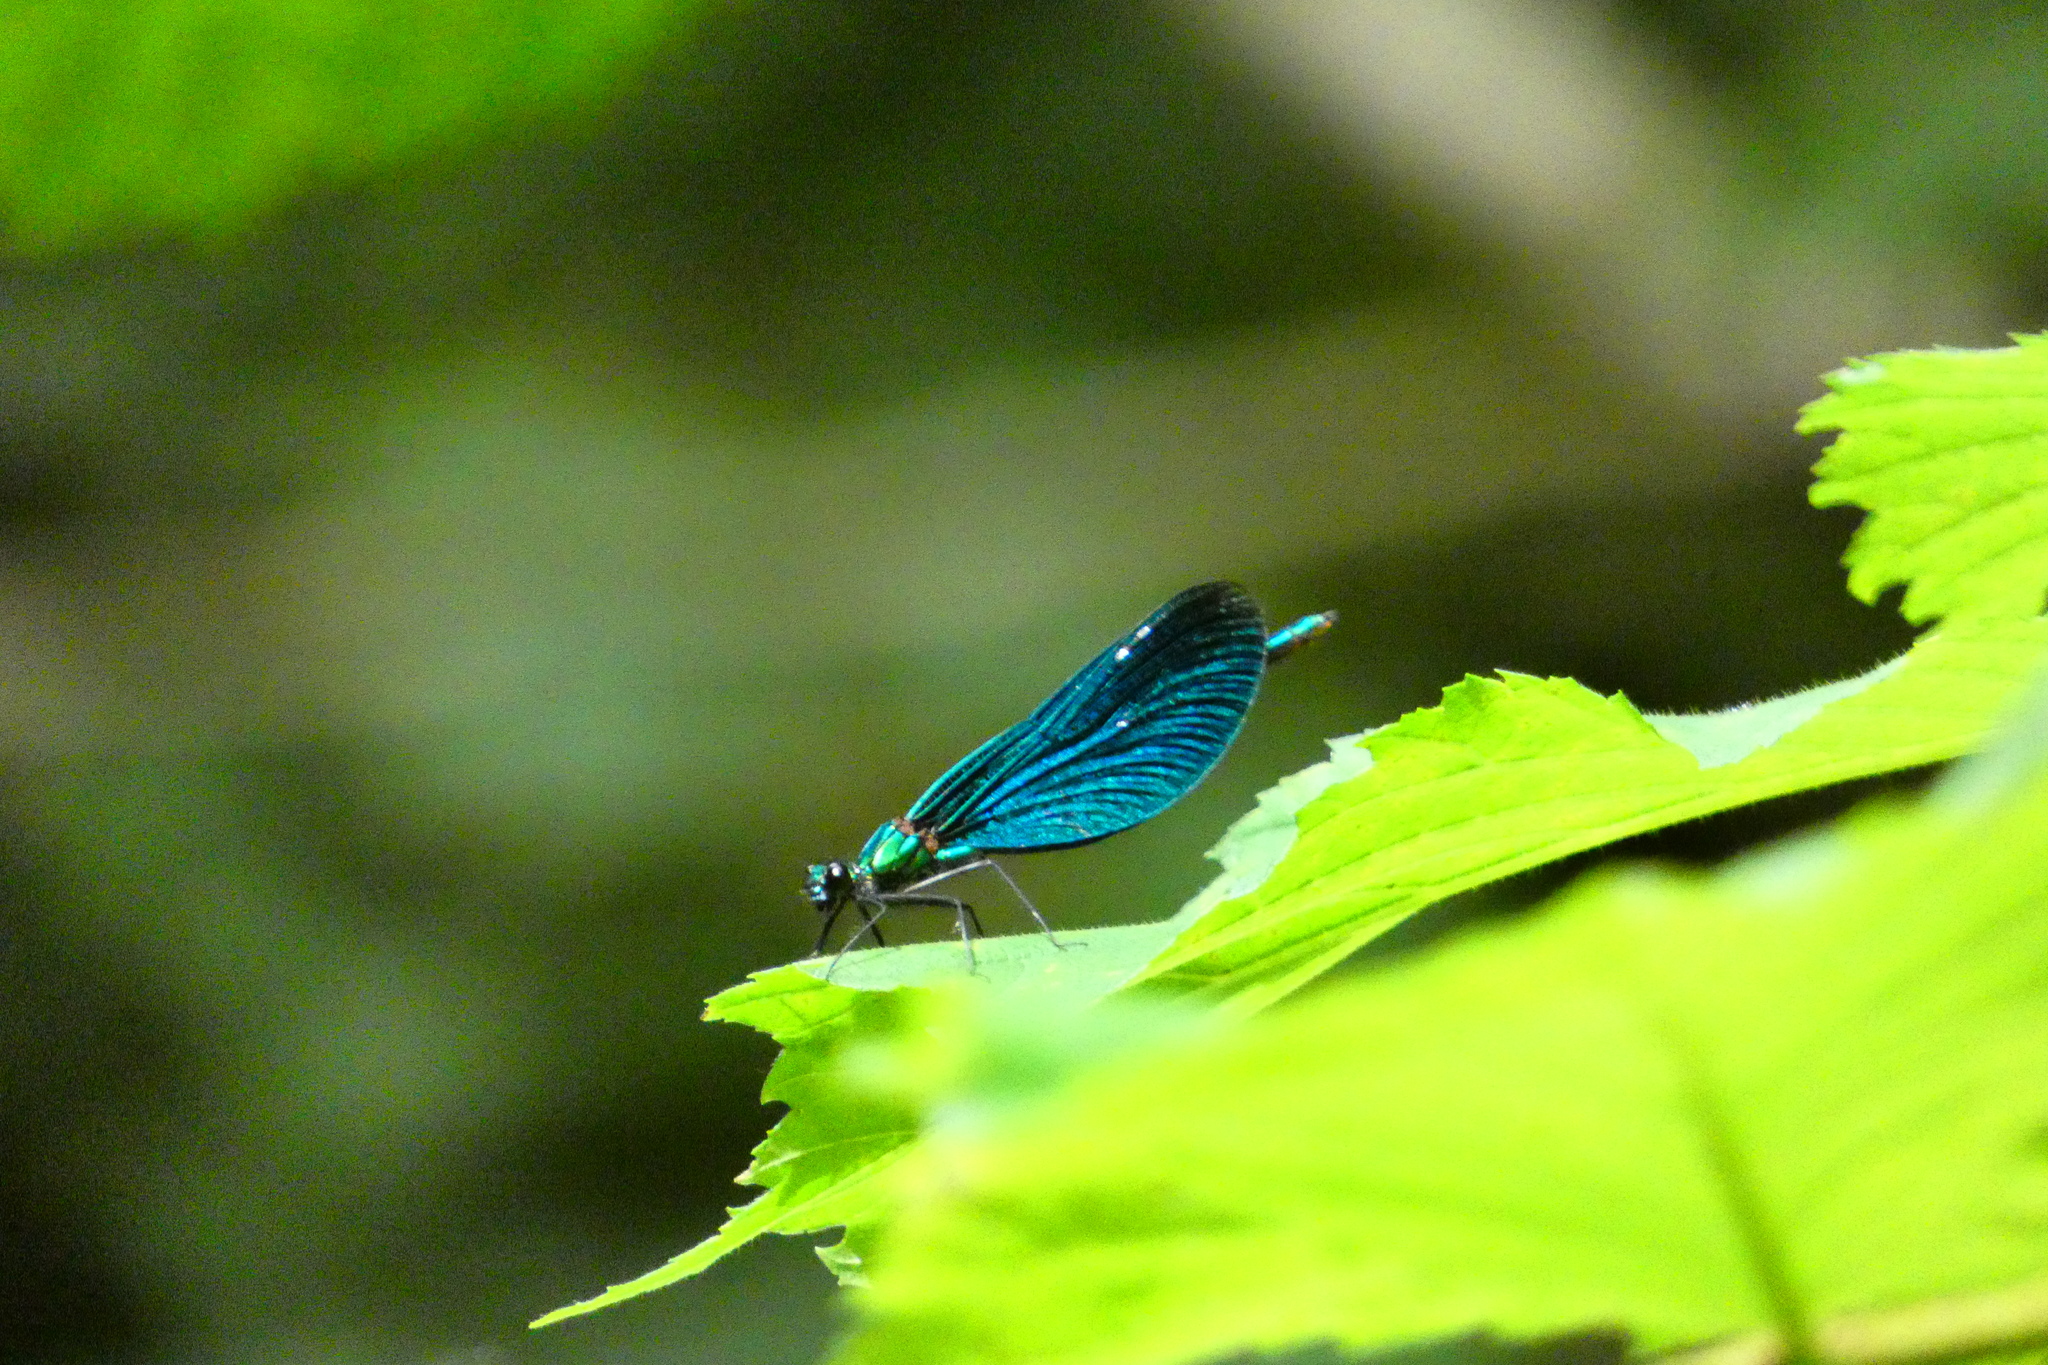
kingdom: Animalia
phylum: Arthropoda
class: Insecta
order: Odonata
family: Calopterygidae
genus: Calopteryx
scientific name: Calopteryx virgo
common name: Beautiful demoiselle
